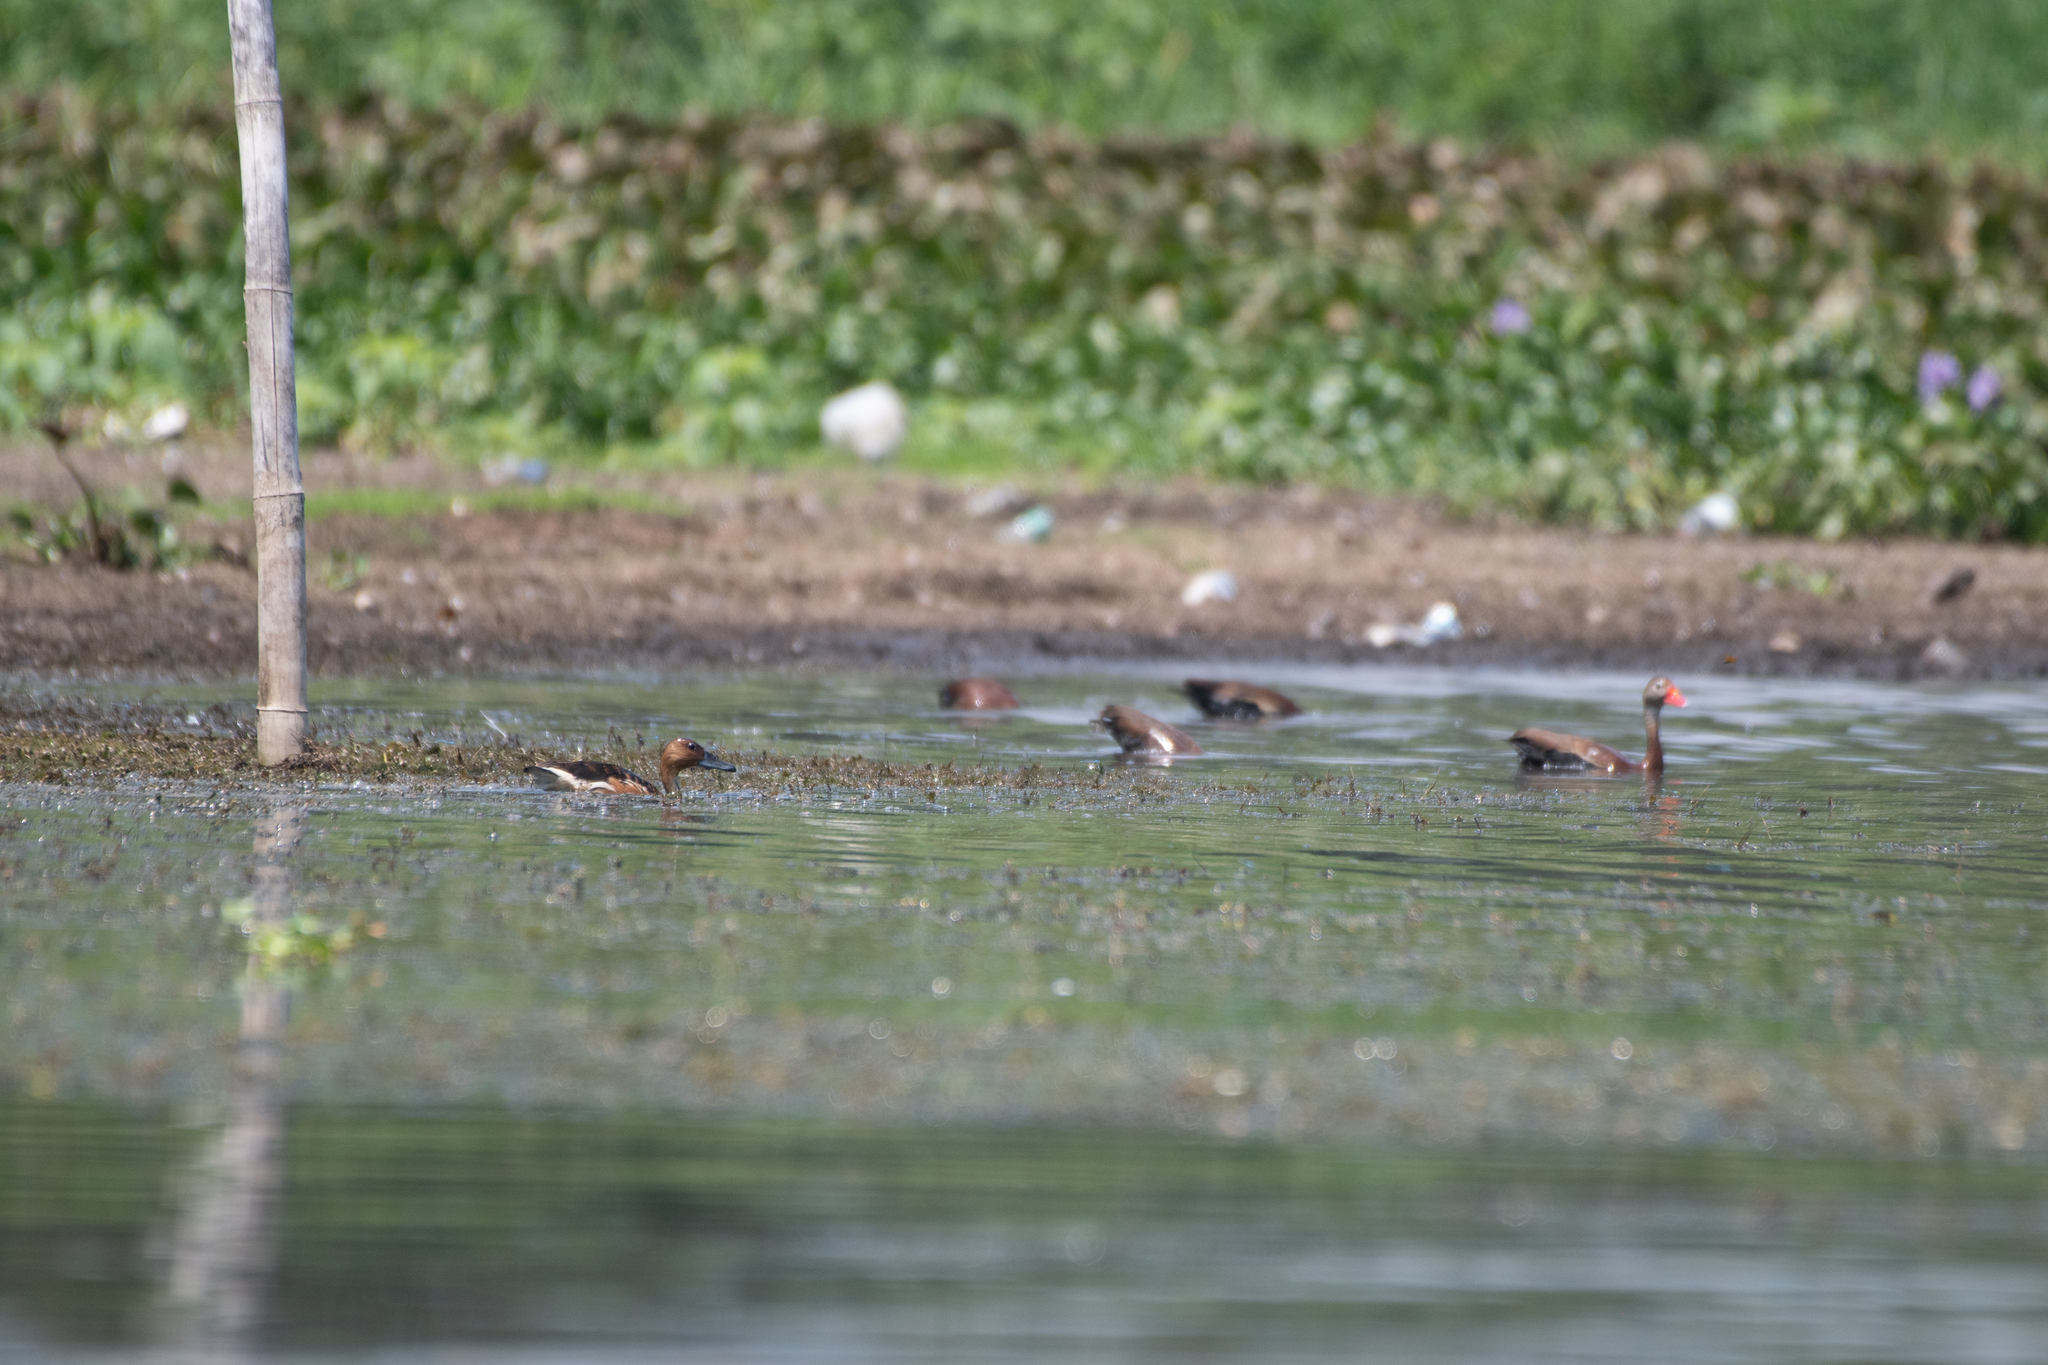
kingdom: Animalia
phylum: Chordata
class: Aves
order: Anseriformes
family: Anatidae
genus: Dendrocygna
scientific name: Dendrocygna bicolor
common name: Fulvous whistling duck
